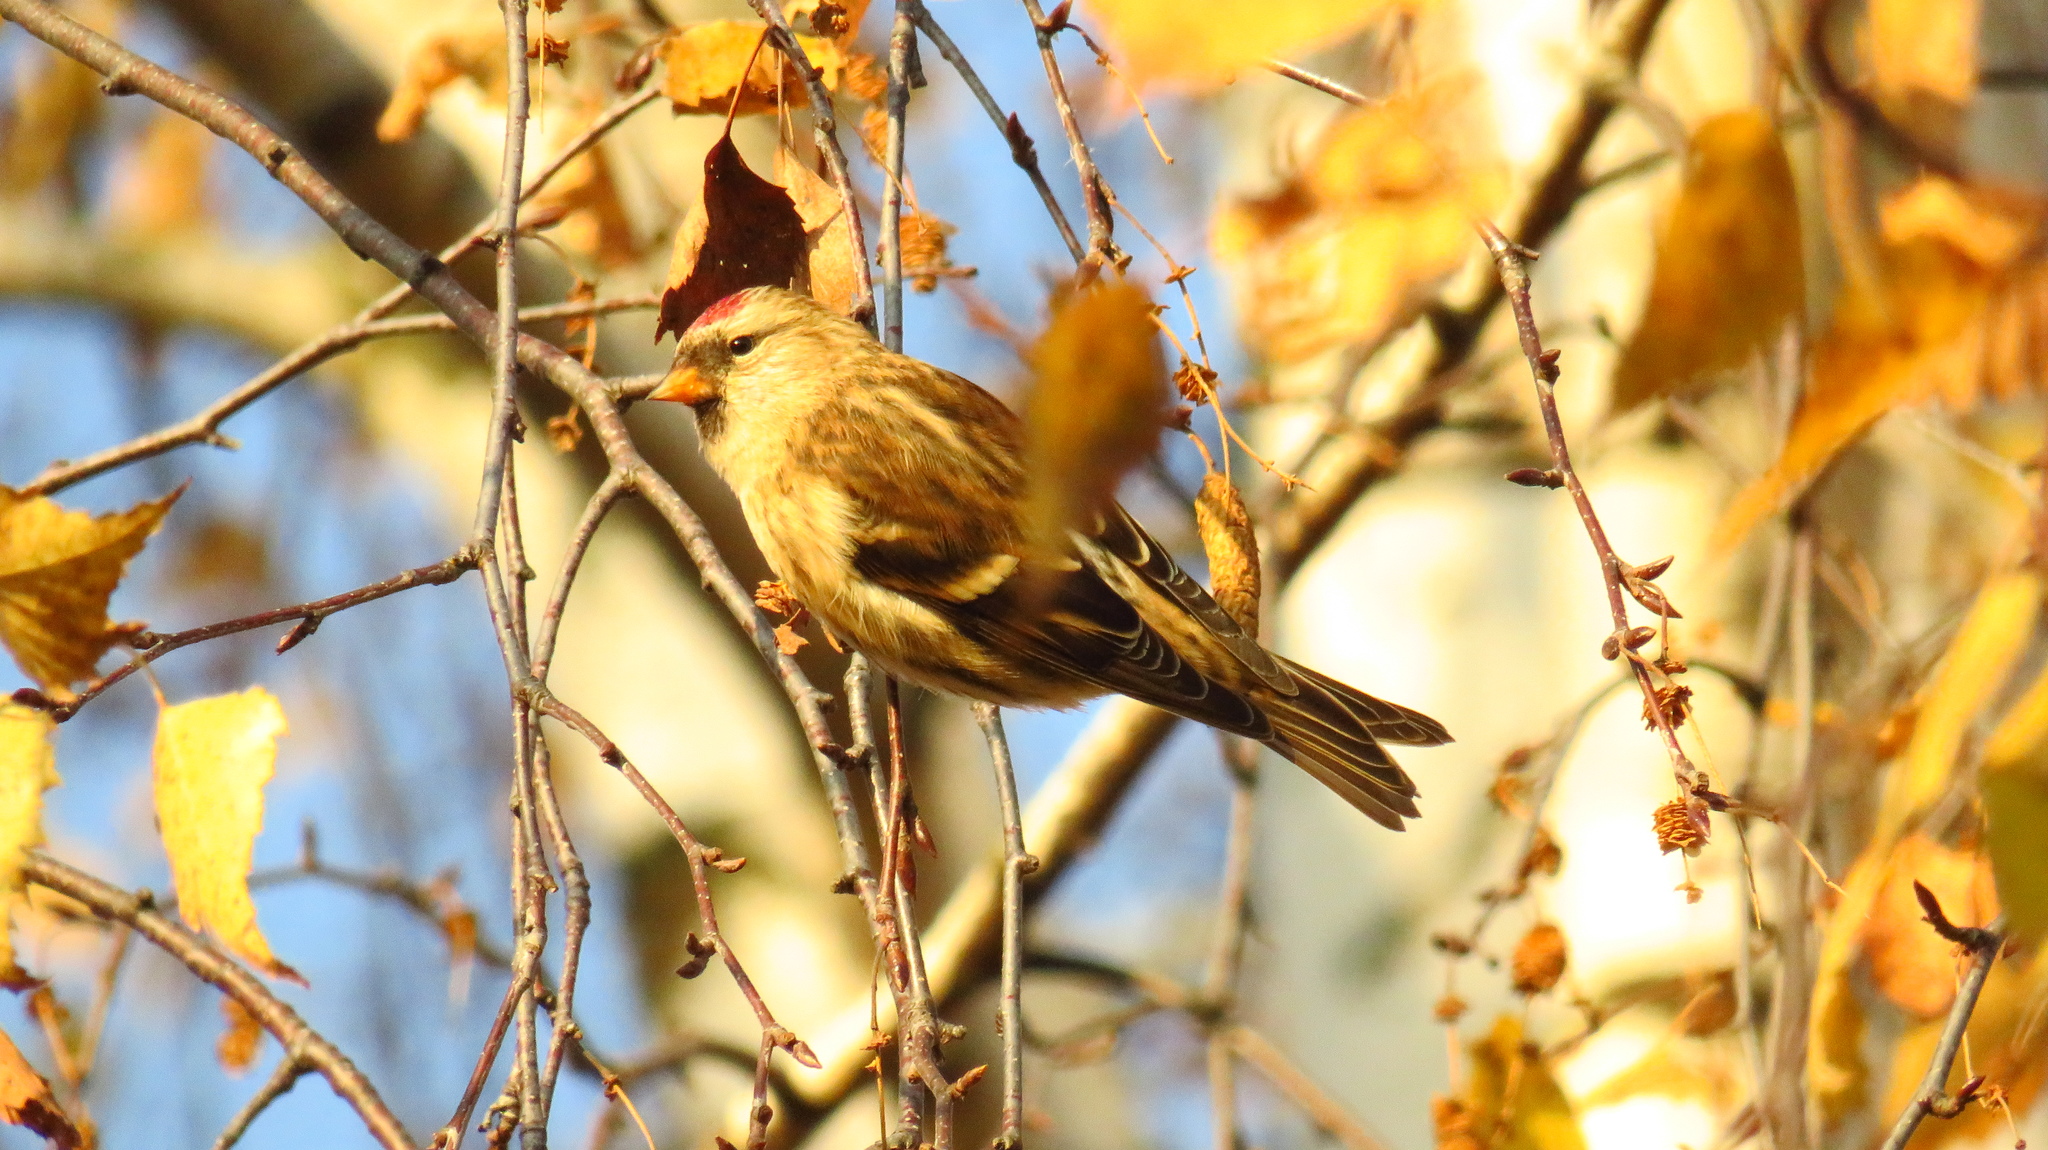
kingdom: Animalia
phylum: Chordata
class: Aves
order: Passeriformes
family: Fringillidae
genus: Acanthis
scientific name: Acanthis flammea
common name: Common redpoll
